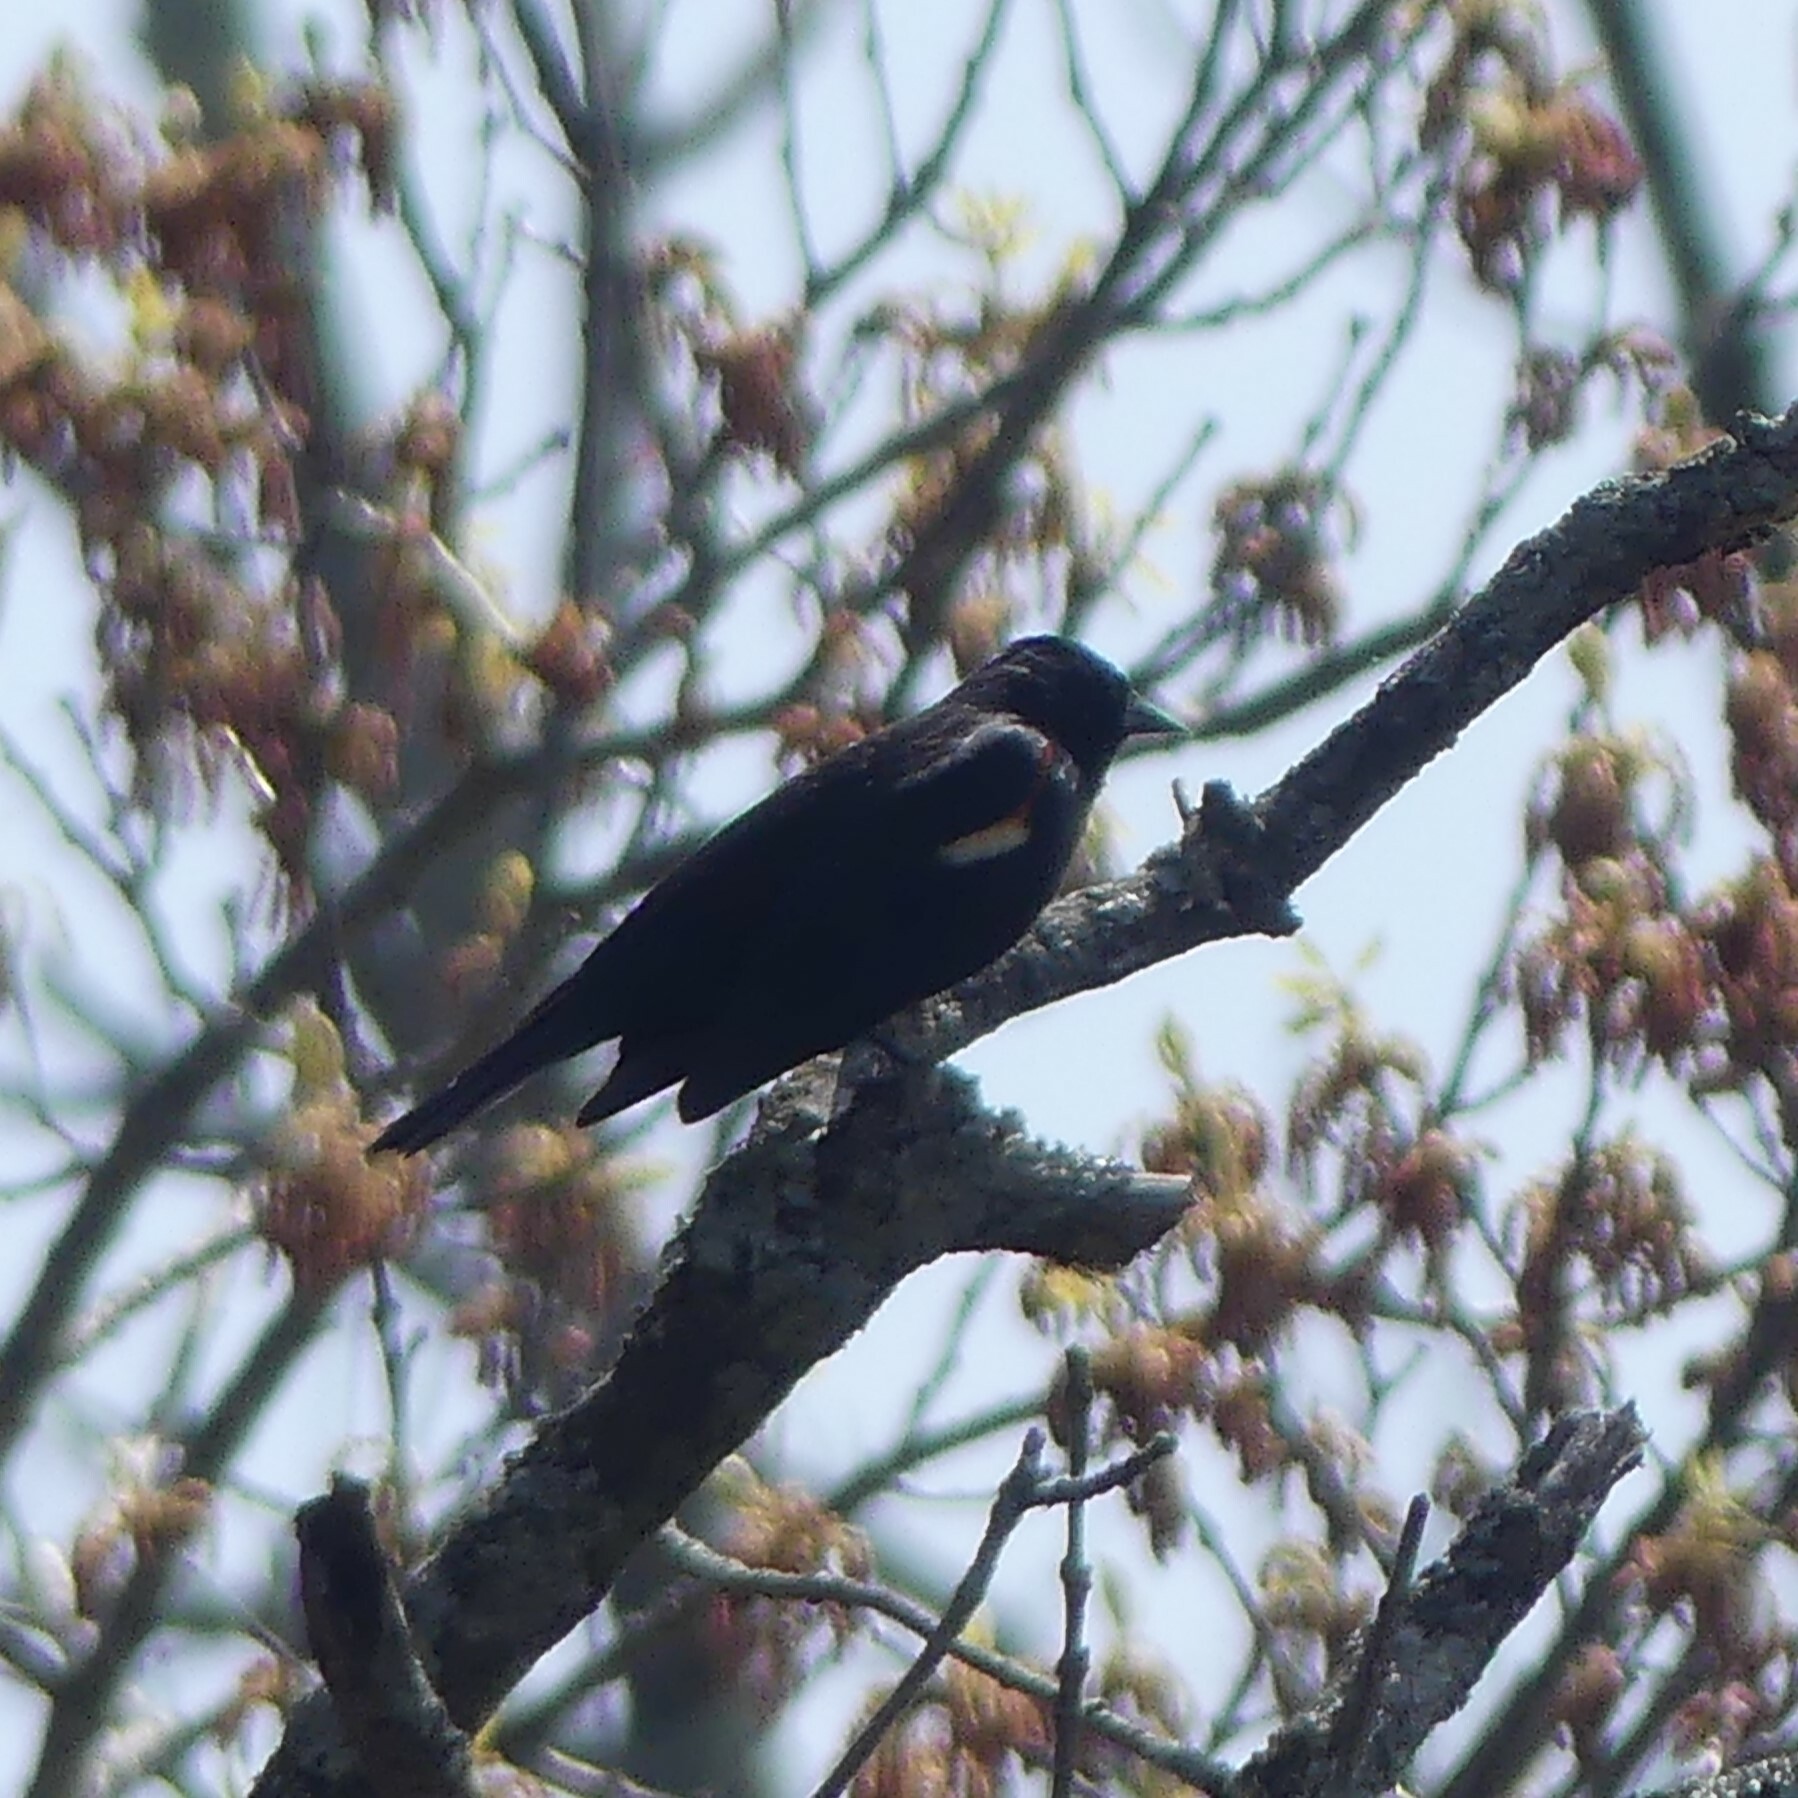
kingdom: Animalia
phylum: Chordata
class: Aves
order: Passeriformes
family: Icteridae
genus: Agelaius
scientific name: Agelaius phoeniceus
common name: Red-winged blackbird
